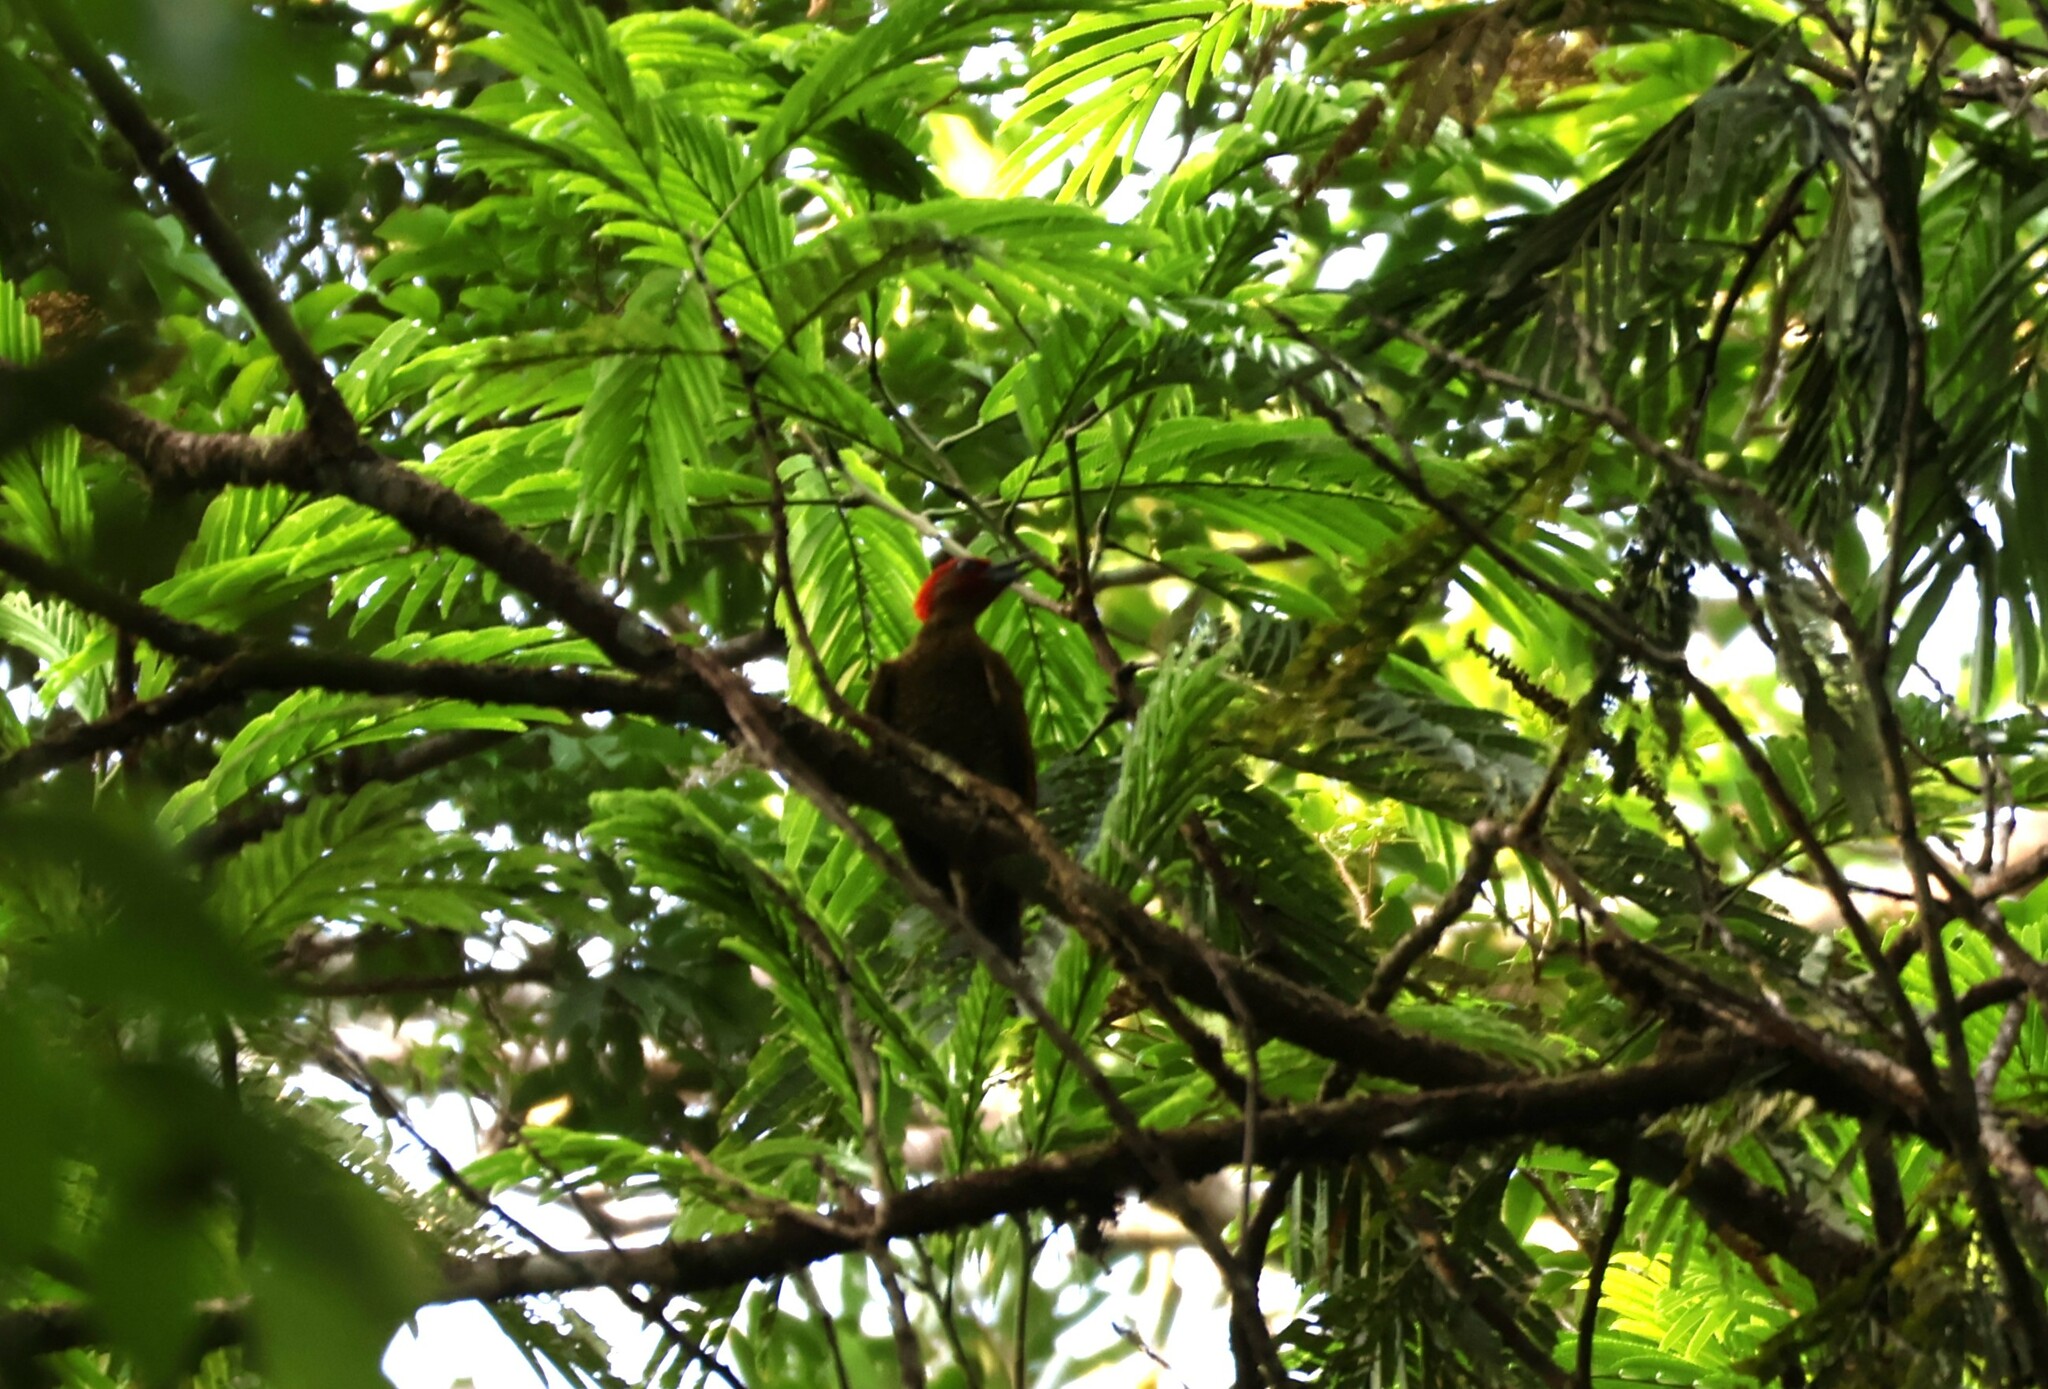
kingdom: Animalia
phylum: Chordata
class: Aves
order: Piciformes
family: Picidae
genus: Piculus
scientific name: Piculus simplex
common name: Rufous-winged woodpecker
